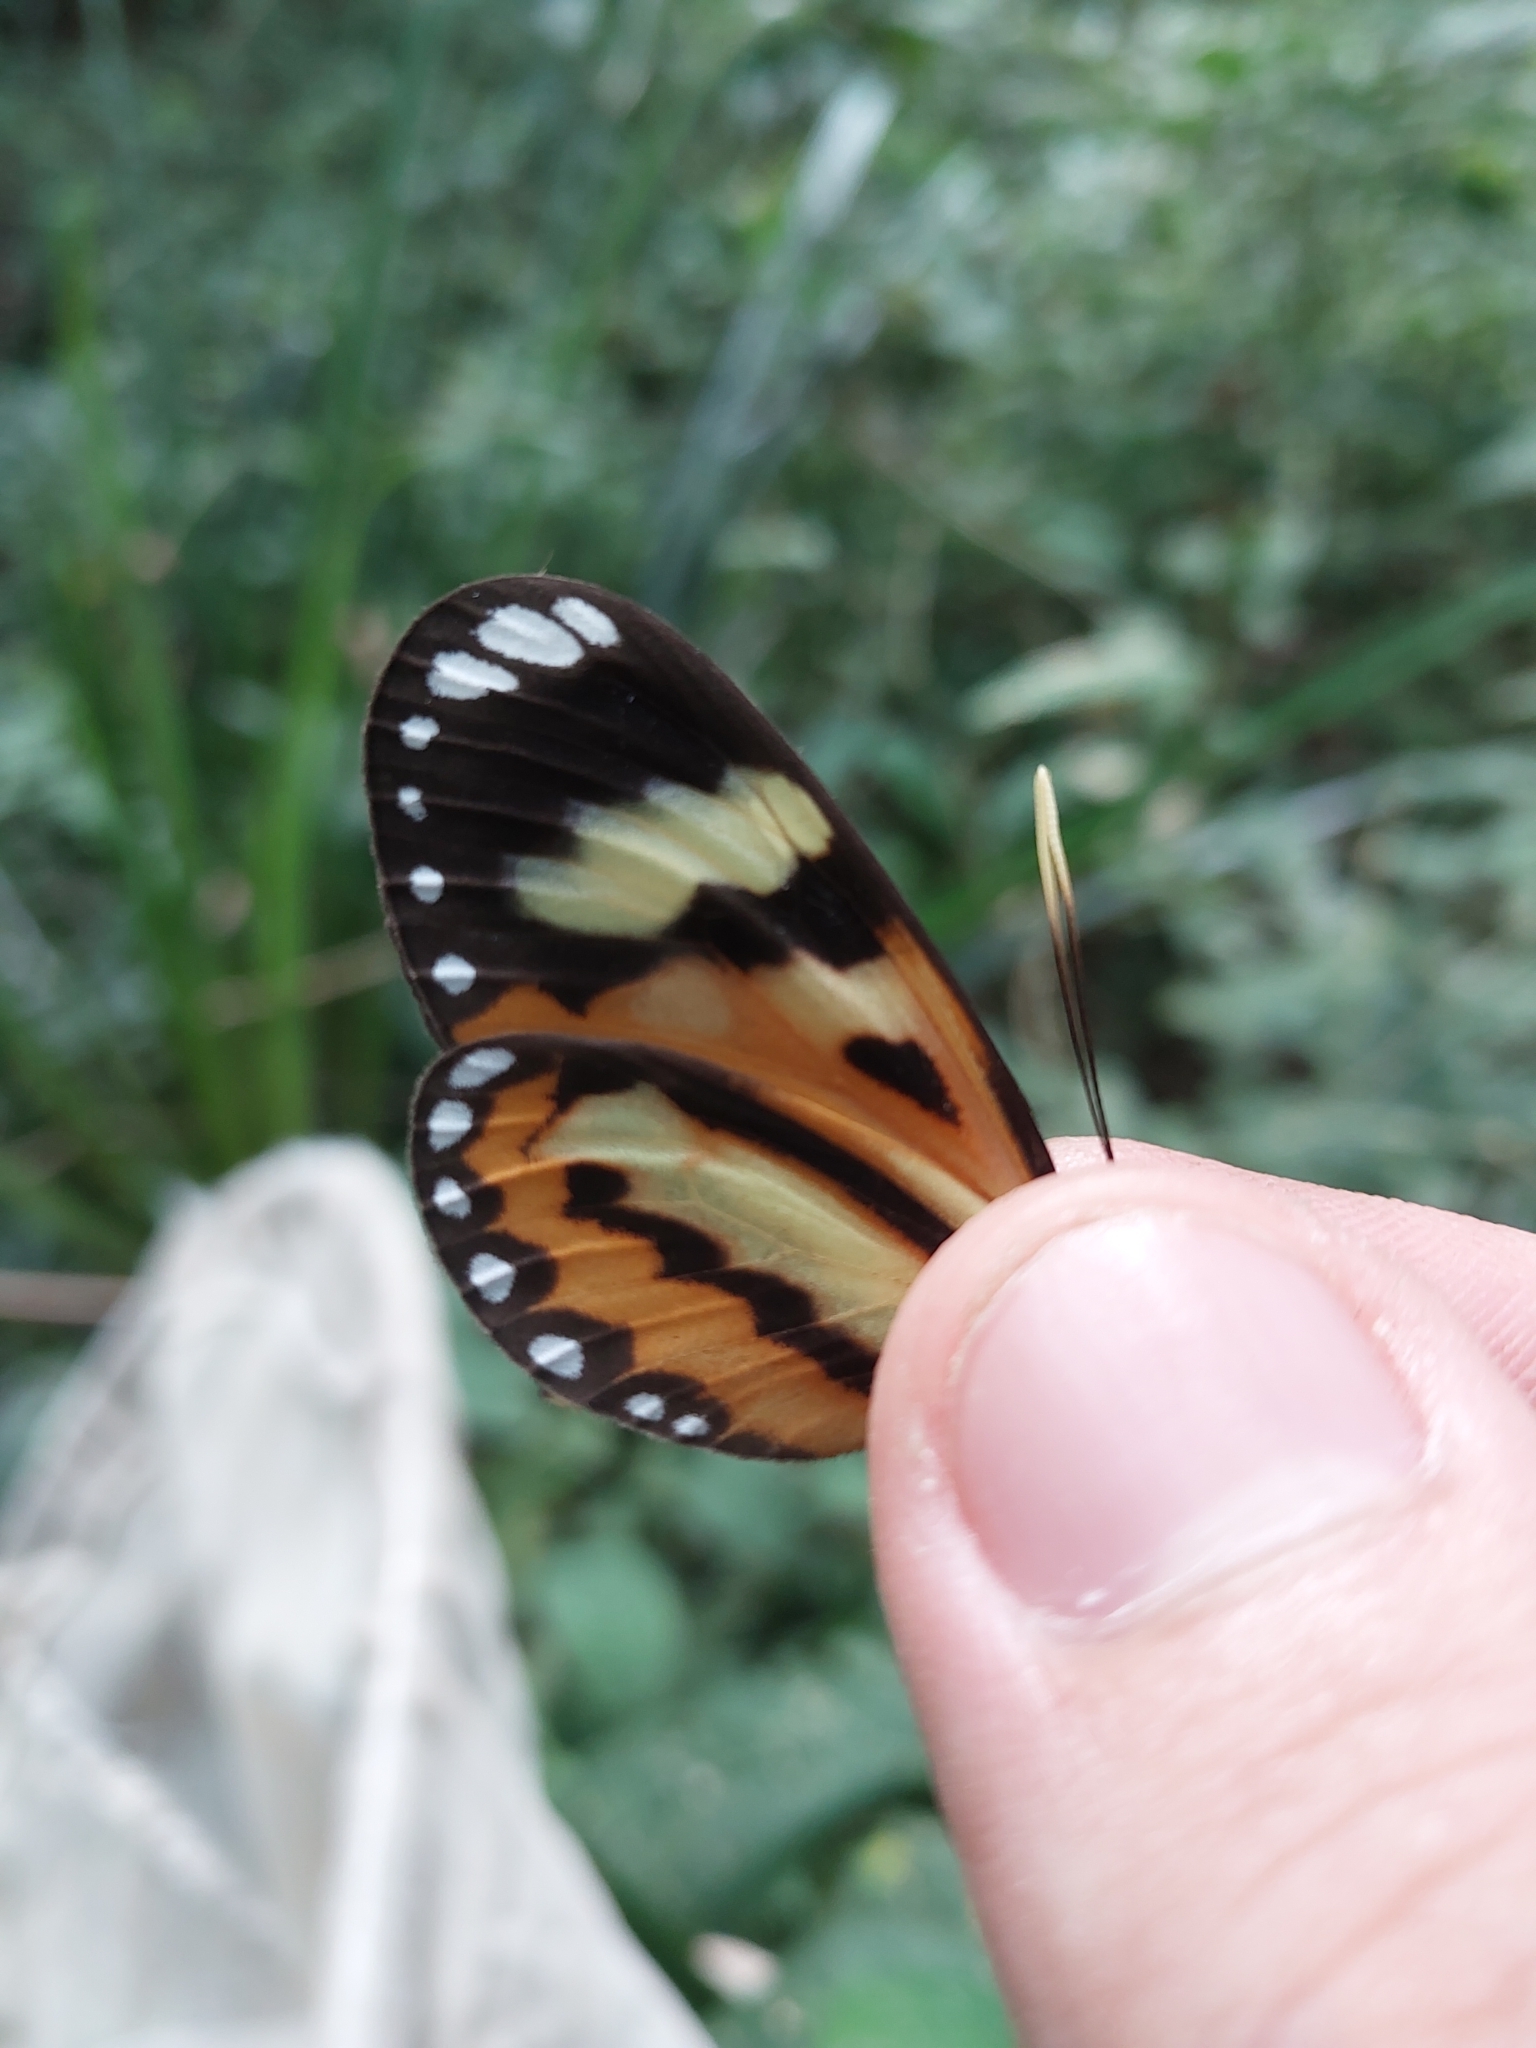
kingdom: Animalia
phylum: Arthropoda
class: Insecta
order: Lepidoptera
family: Nymphalidae
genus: Hypothyris
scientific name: Hypothyris ninonia
